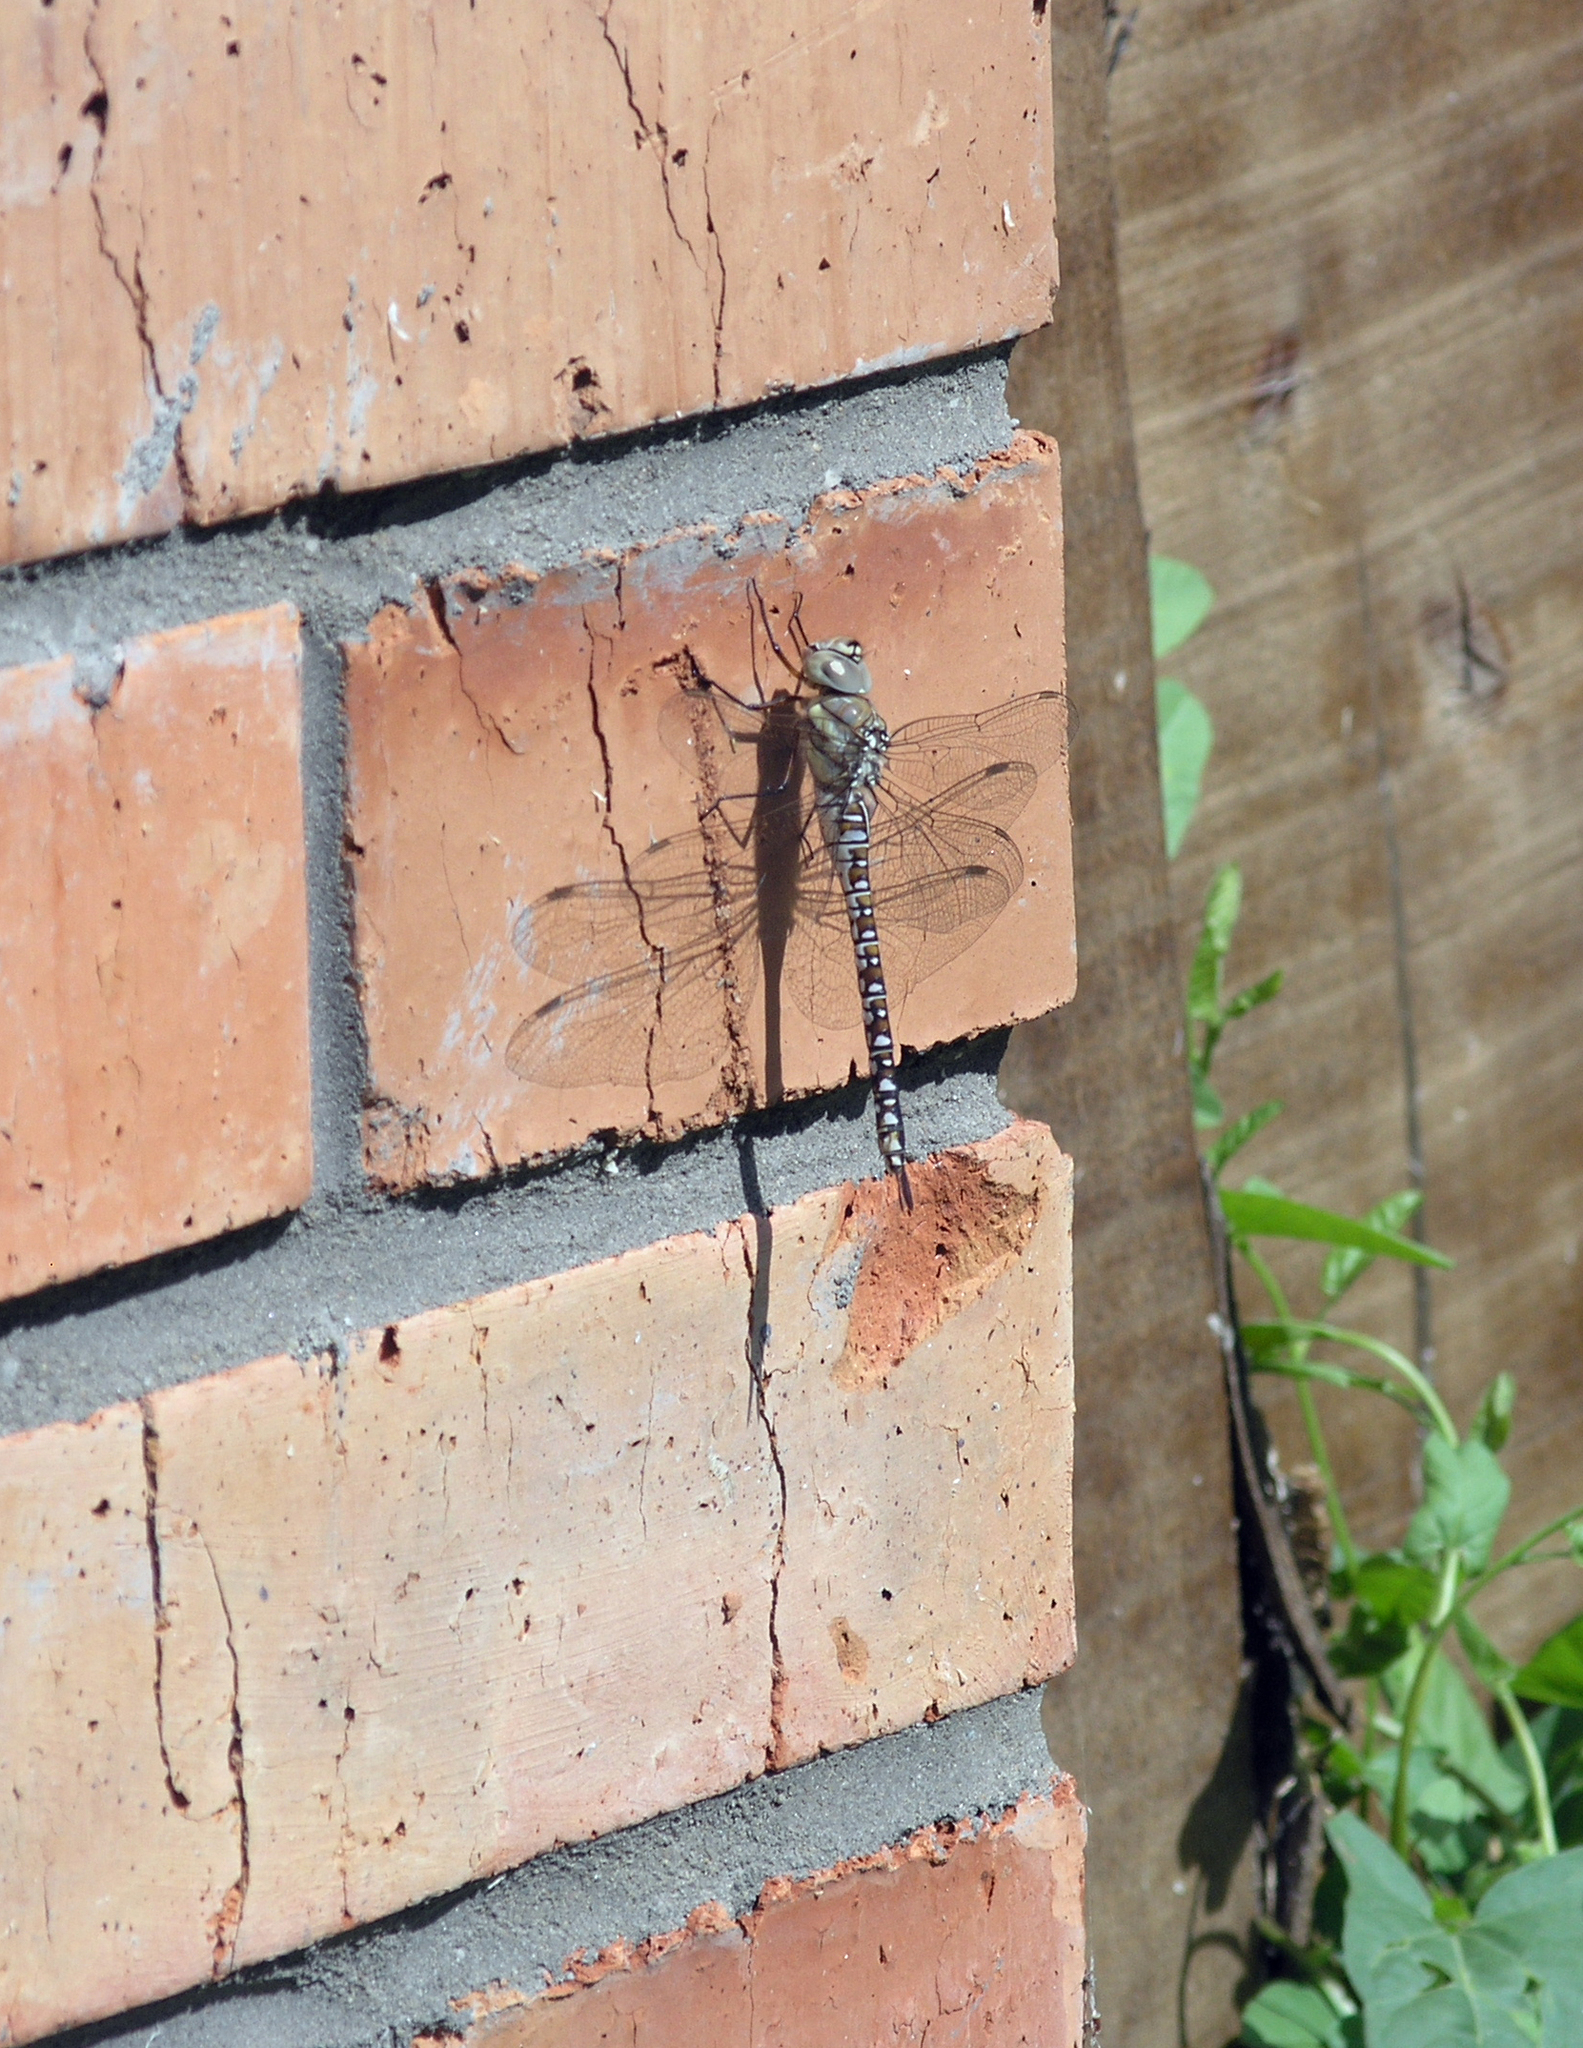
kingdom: Animalia
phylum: Arthropoda
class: Insecta
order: Odonata
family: Aeshnidae
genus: Aeshna
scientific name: Aeshna soneharai
